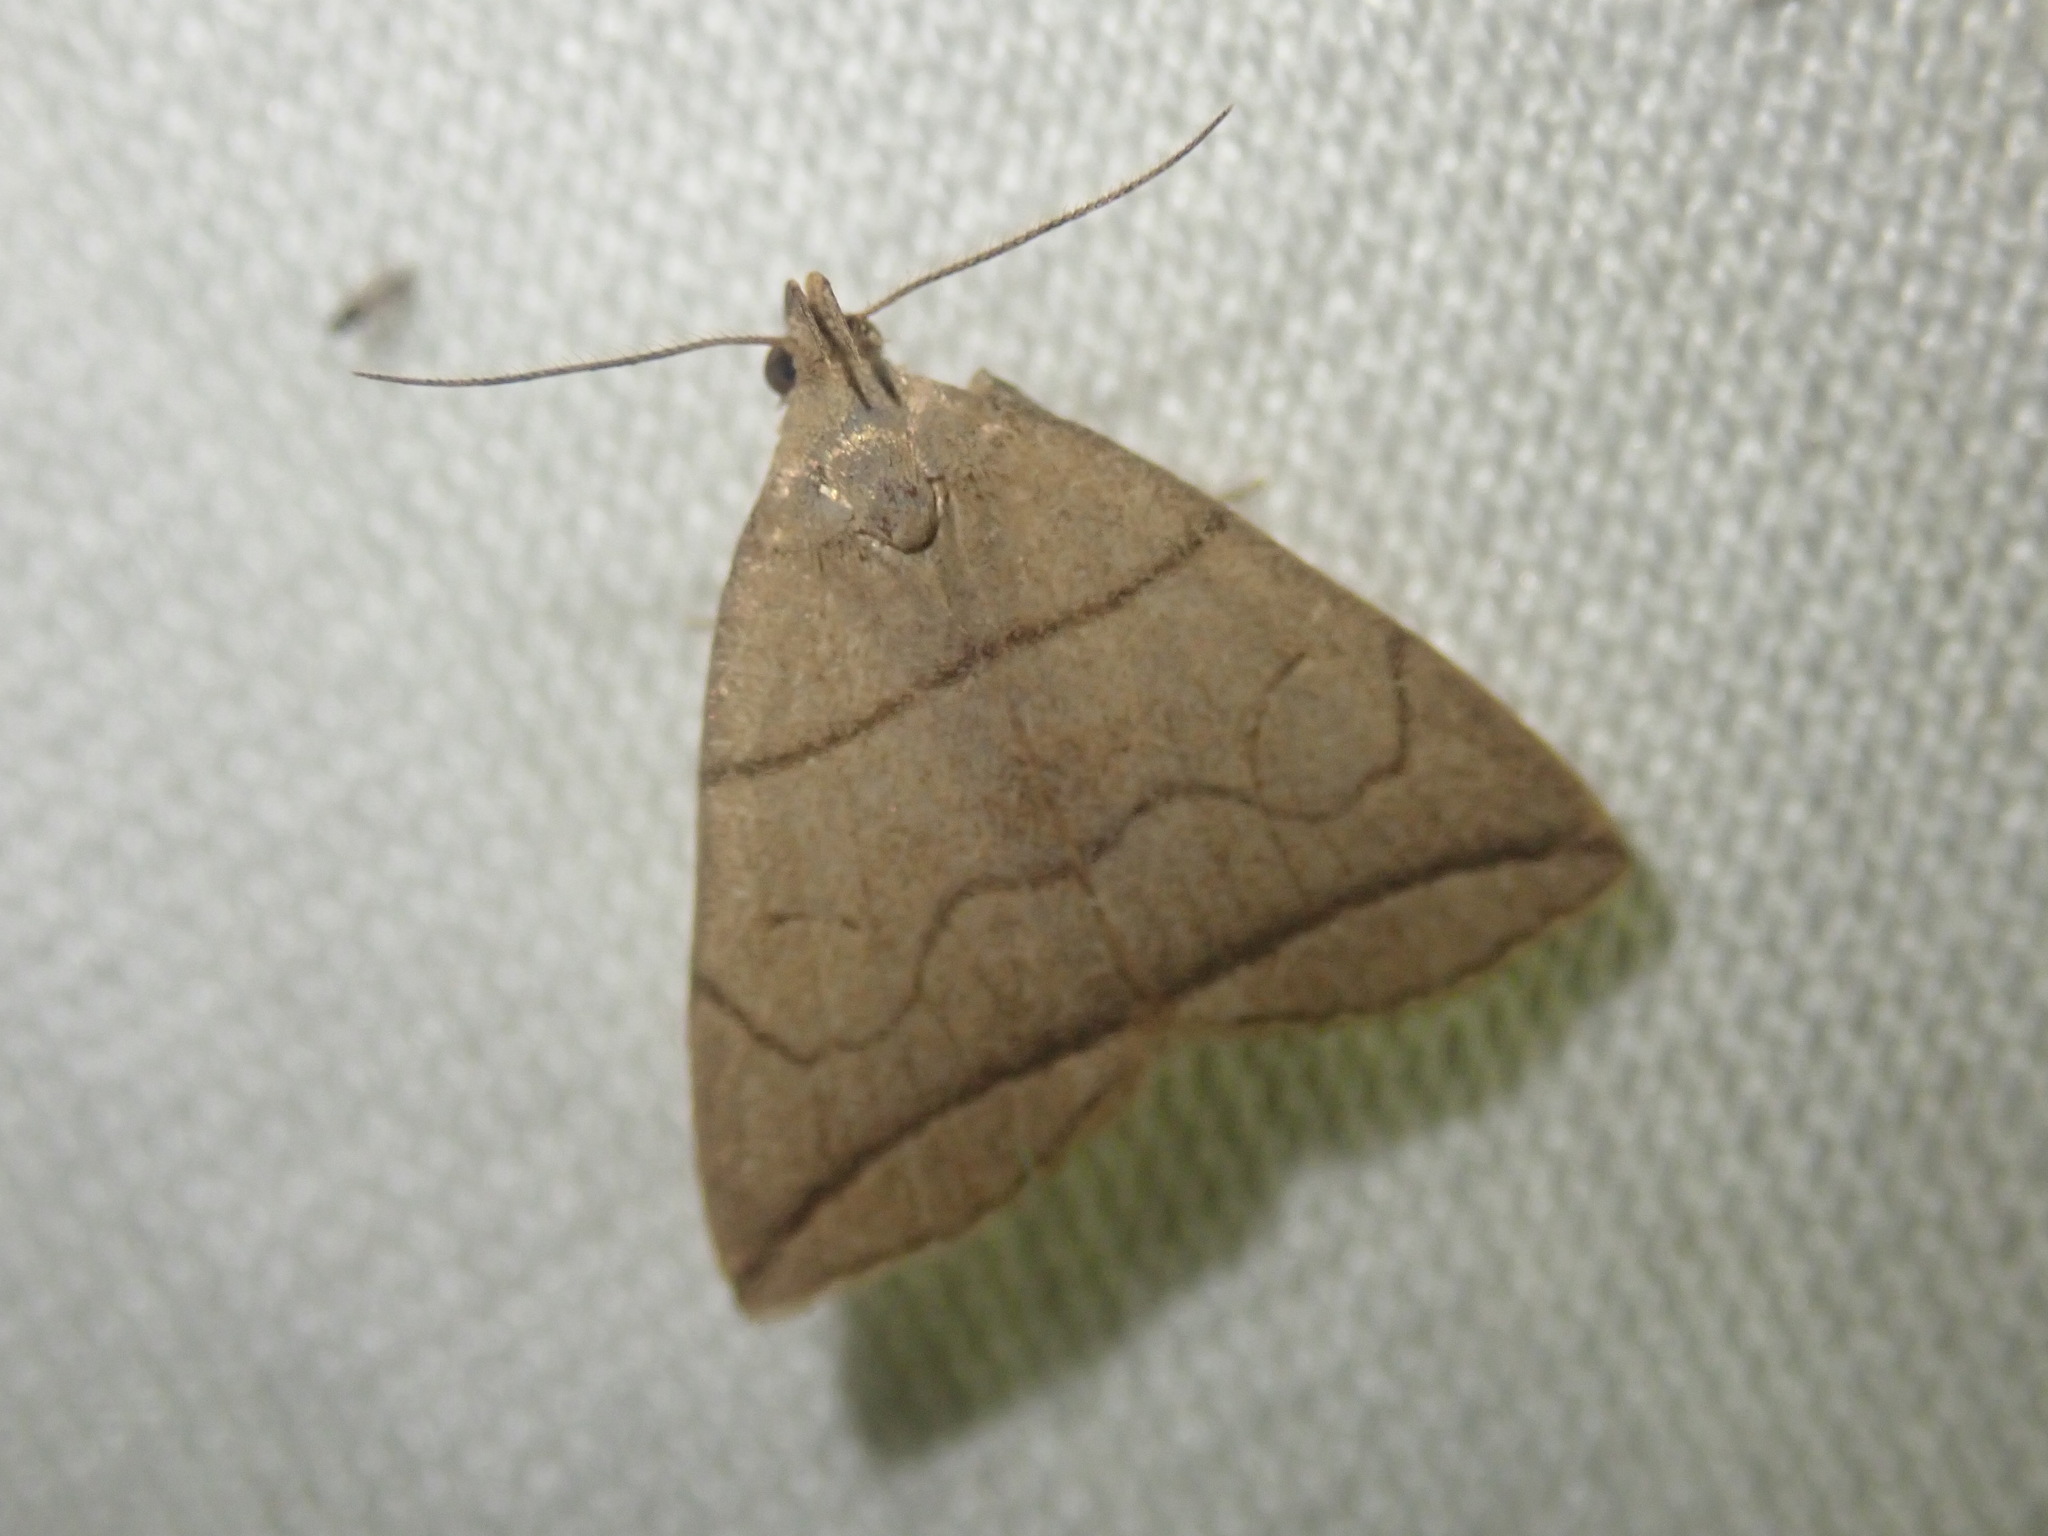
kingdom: Animalia
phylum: Arthropoda
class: Insecta
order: Lepidoptera
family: Erebidae
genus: Herminia
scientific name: Herminia grisealis
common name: Small fan-foot
